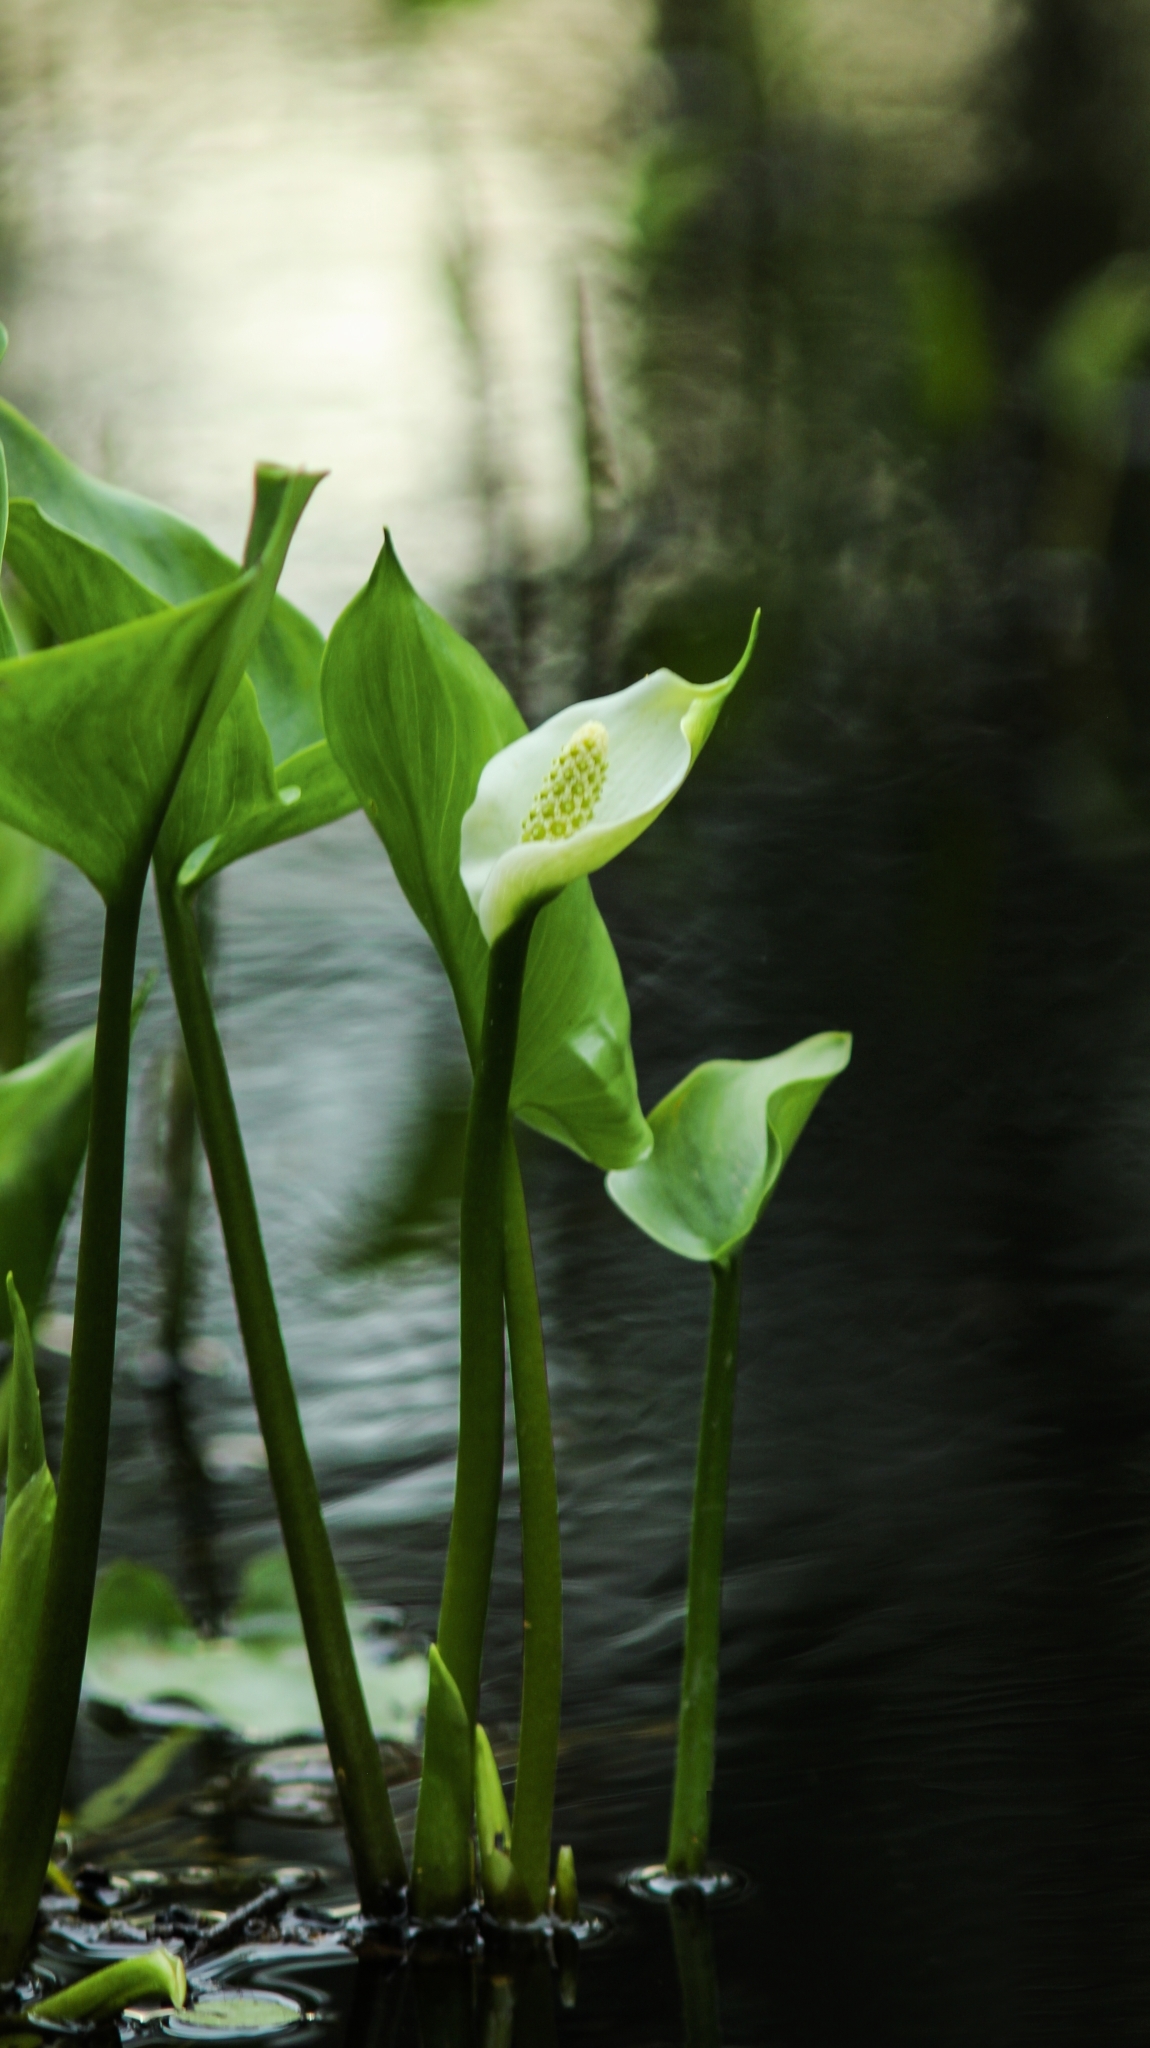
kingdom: Plantae
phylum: Tracheophyta
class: Liliopsida
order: Alismatales
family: Araceae
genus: Calla
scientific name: Calla palustris
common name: Bog arum
